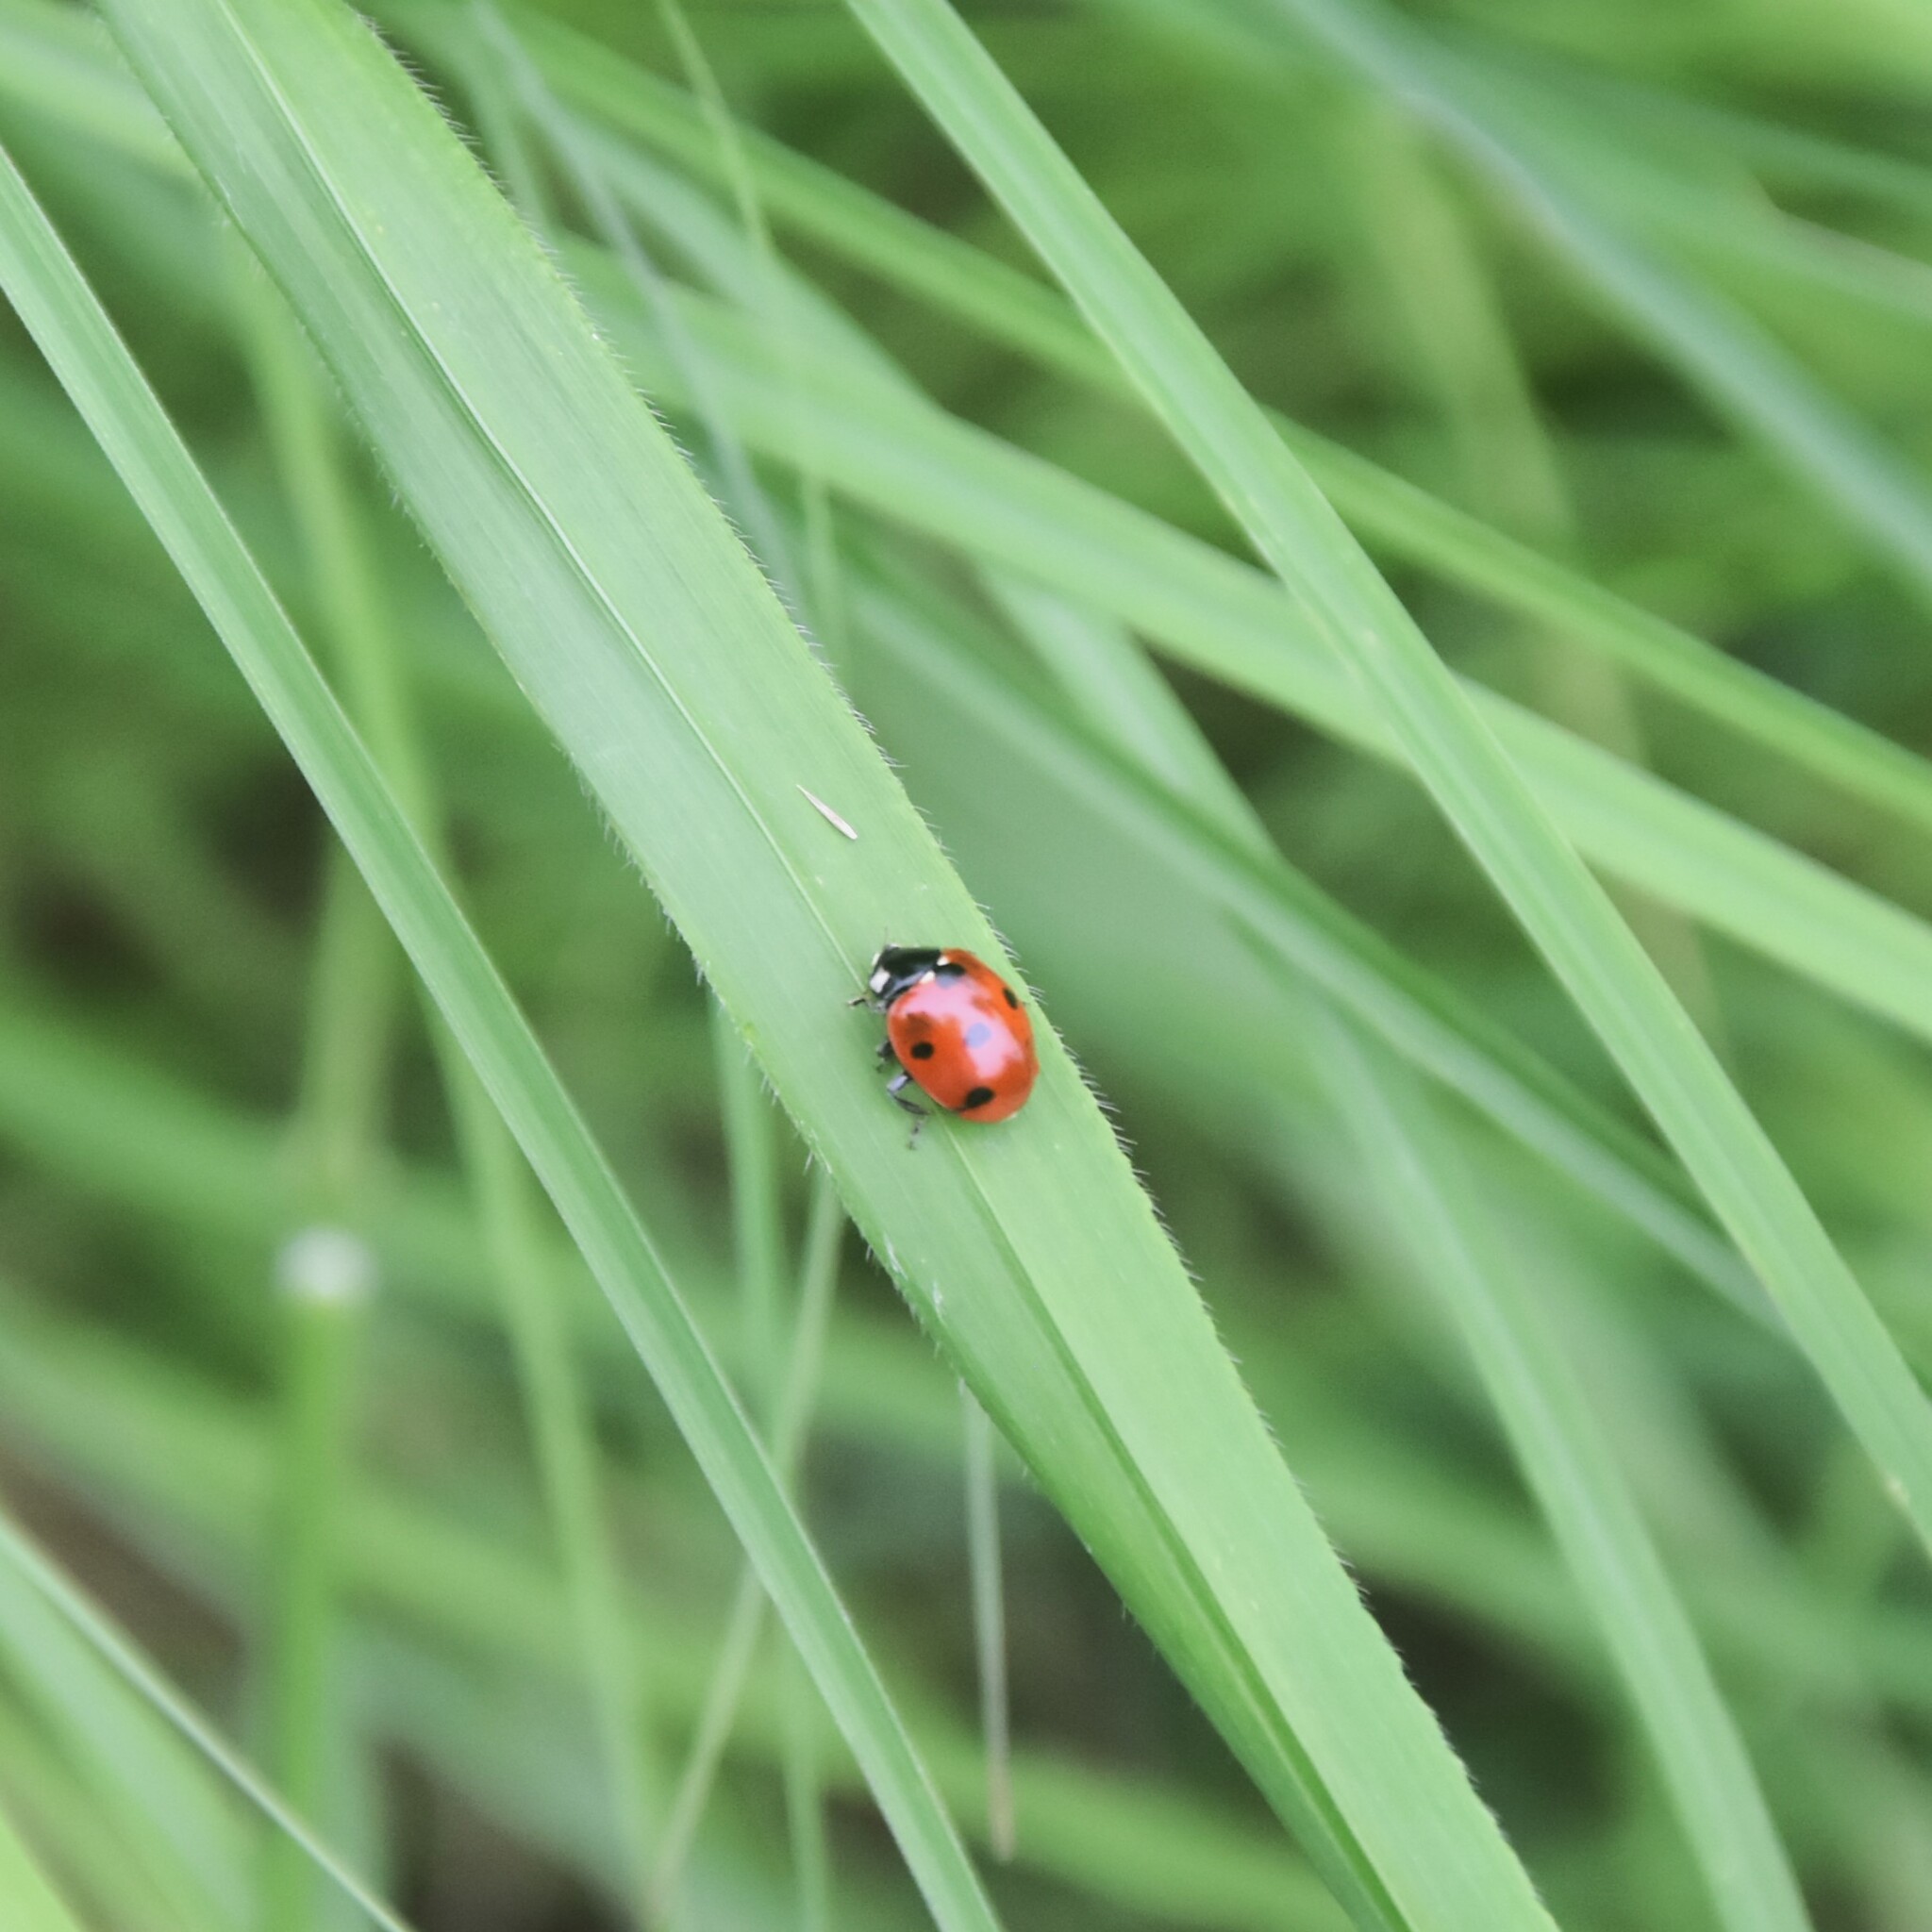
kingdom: Animalia
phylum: Arthropoda
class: Insecta
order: Coleoptera
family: Coccinellidae
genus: Coccinella
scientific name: Coccinella septempunctata
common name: Sevenspotted lady beetle
